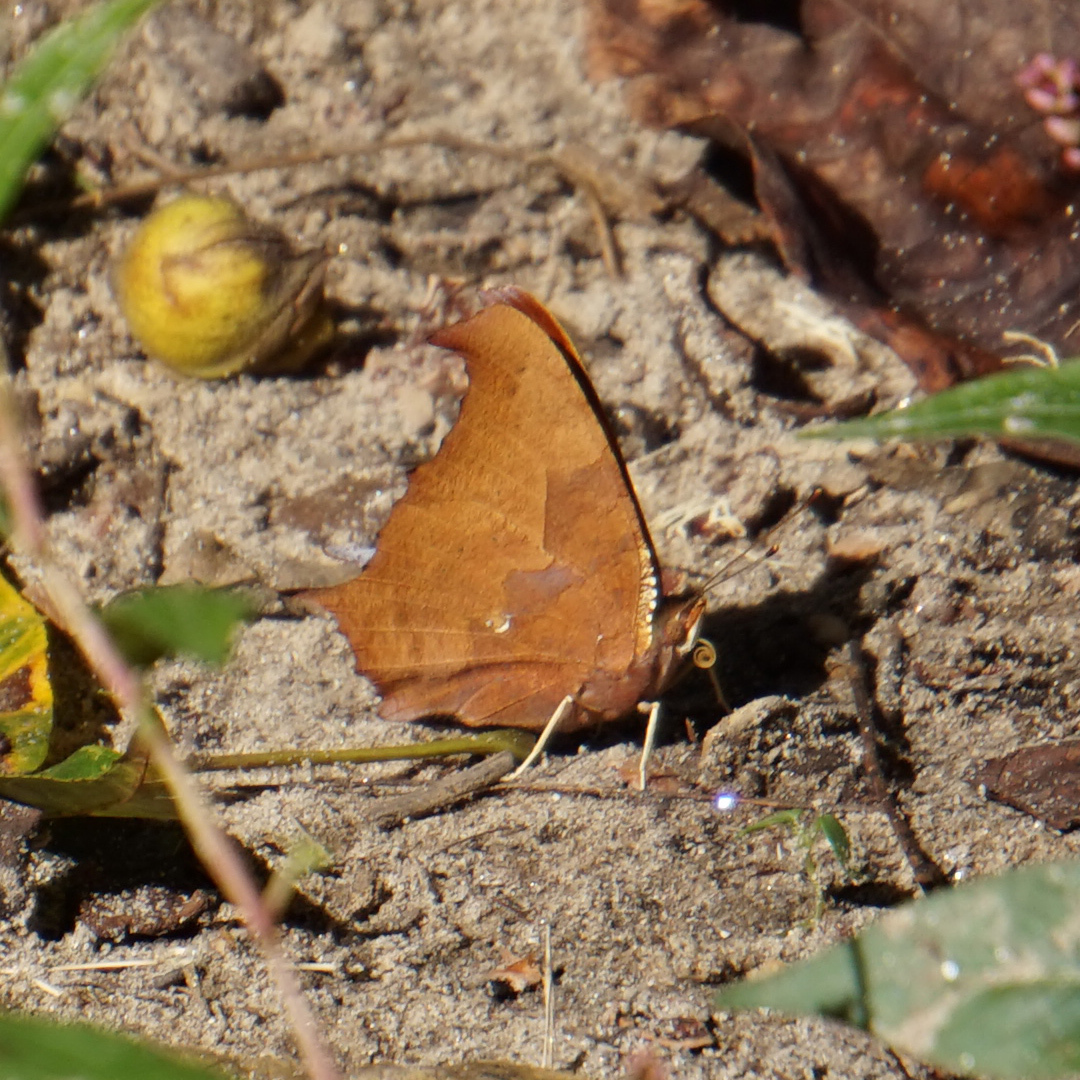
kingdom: Animalia
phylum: Arthropoda
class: Insecta
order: Lepidoptera
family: Nymphalidae
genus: Polygonia
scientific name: Polygonia interrogationis
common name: Question mark
